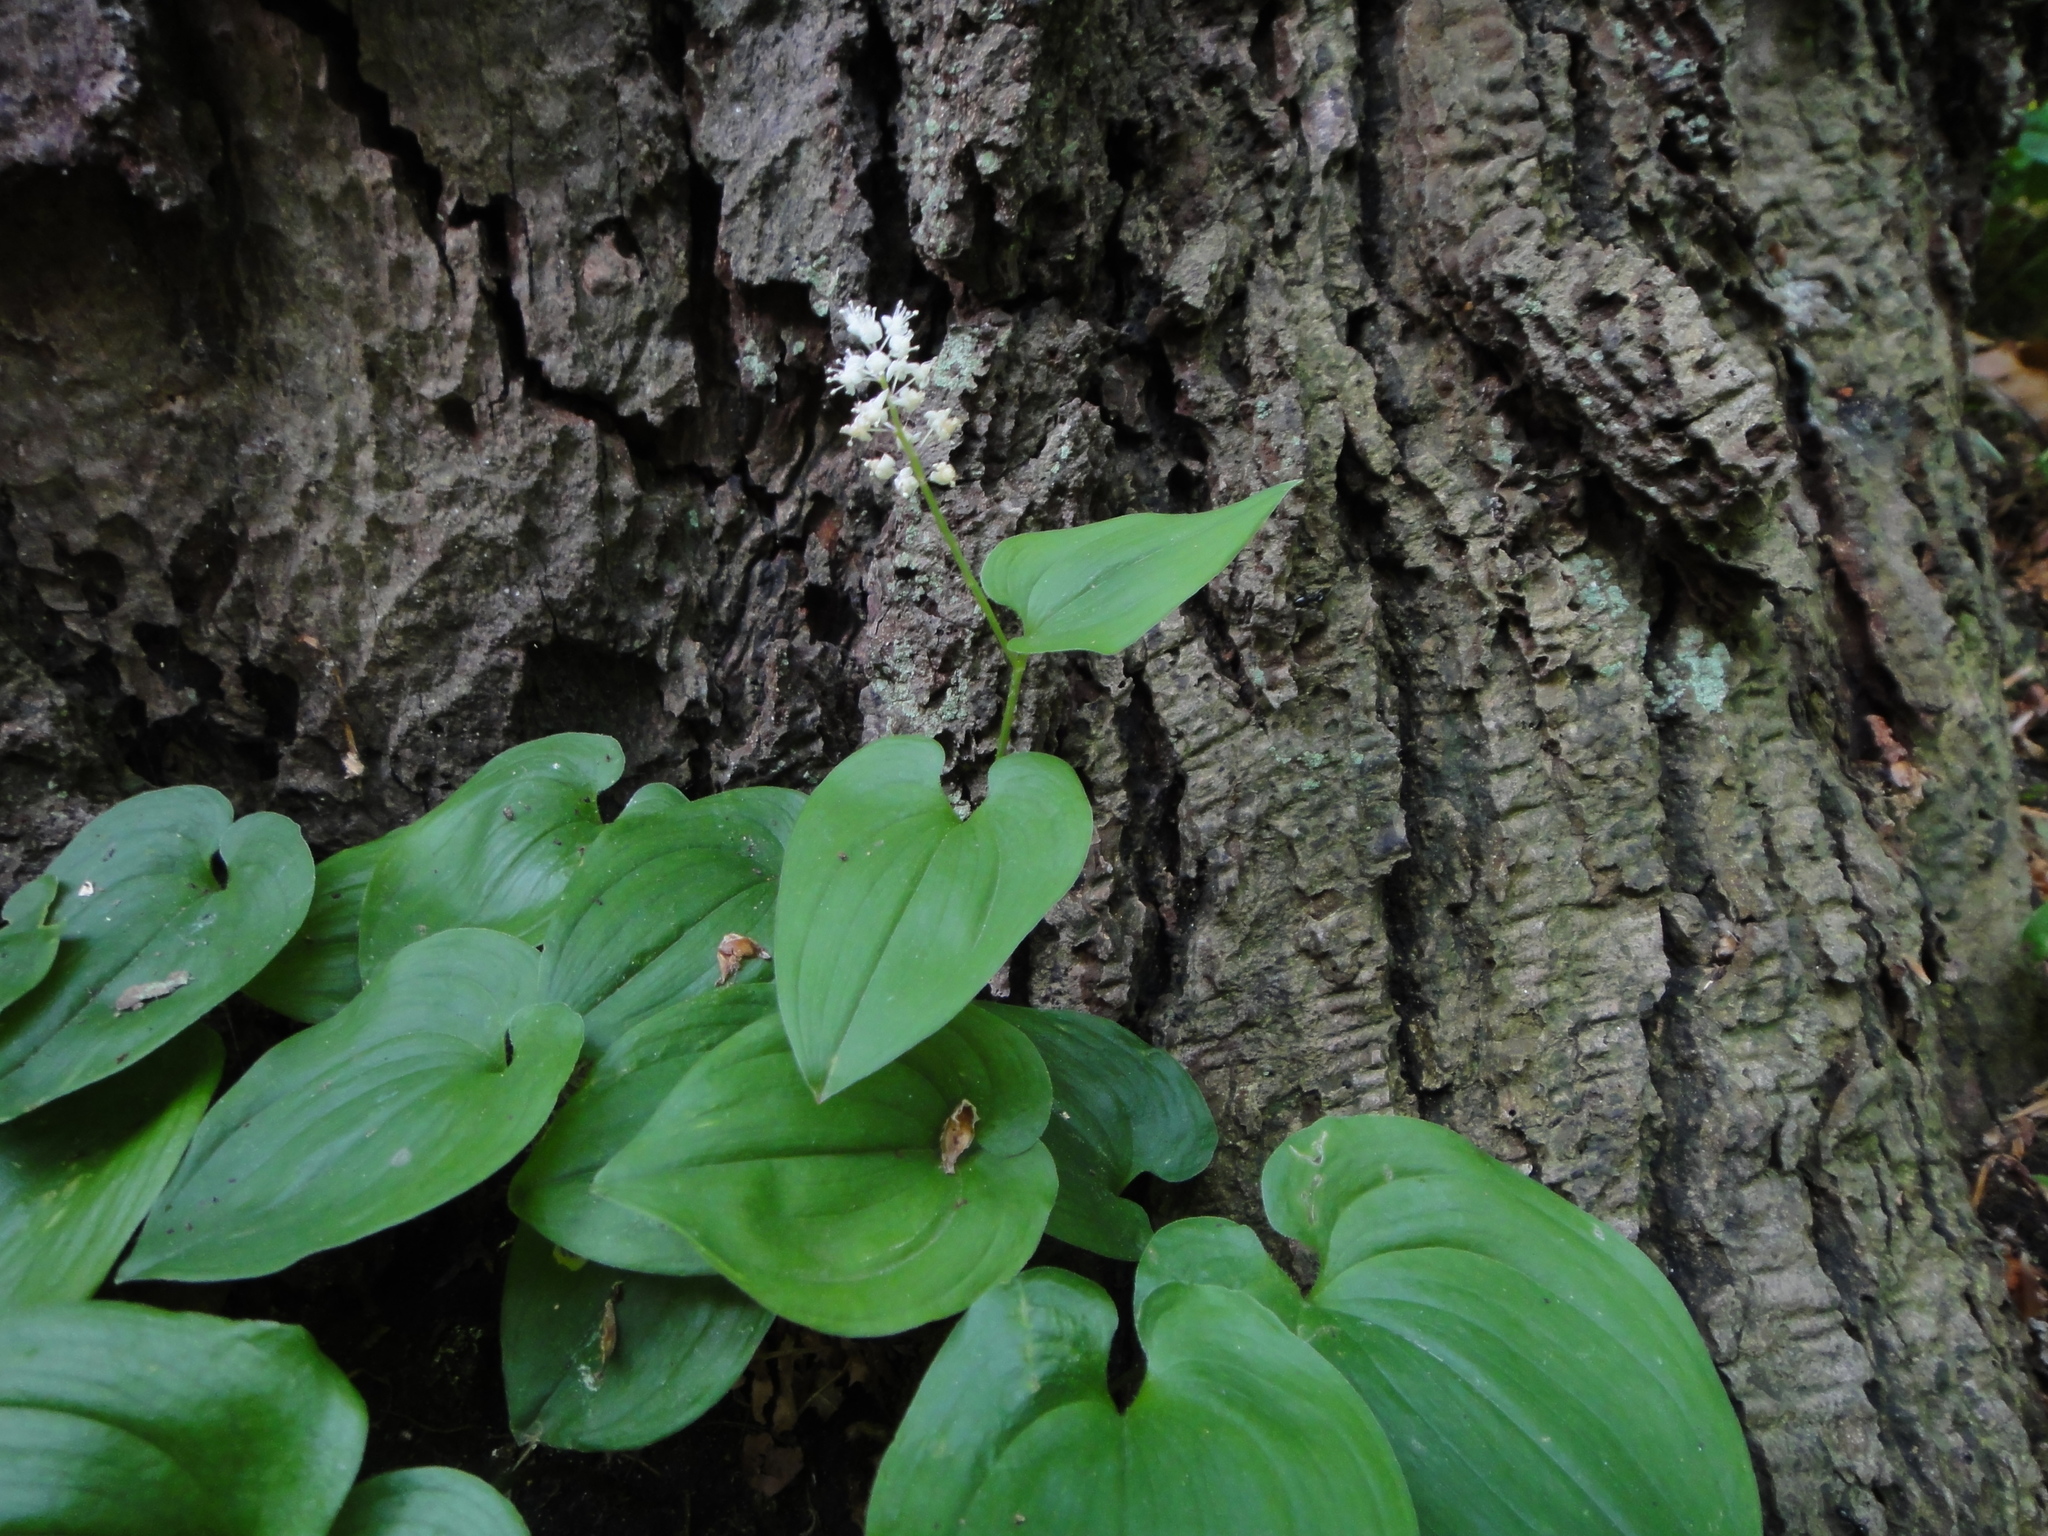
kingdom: Plantae
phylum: Tracheophyta
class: Liliopsida
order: Asparagales
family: Asparagaceae
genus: Maianthemum
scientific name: Maianthemum bifolium
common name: May lily
